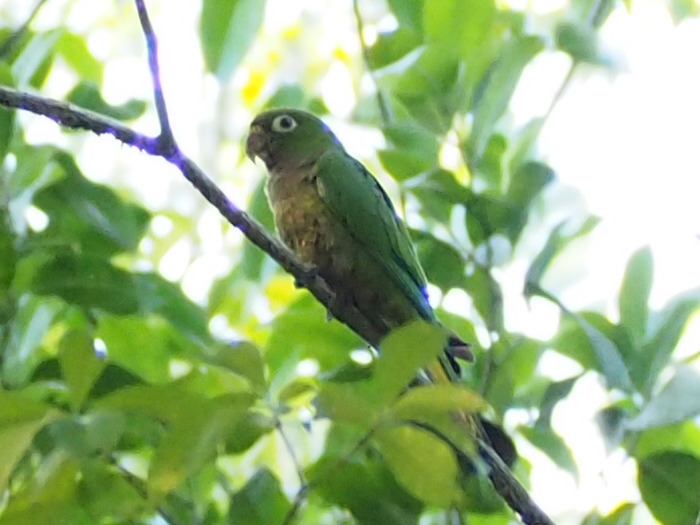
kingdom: Animalia
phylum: Chordata
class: Aves
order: Psittaciformes
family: Psittacidae
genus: Aratinga
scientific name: Aratinga nana
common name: Olive-throated parakeet
